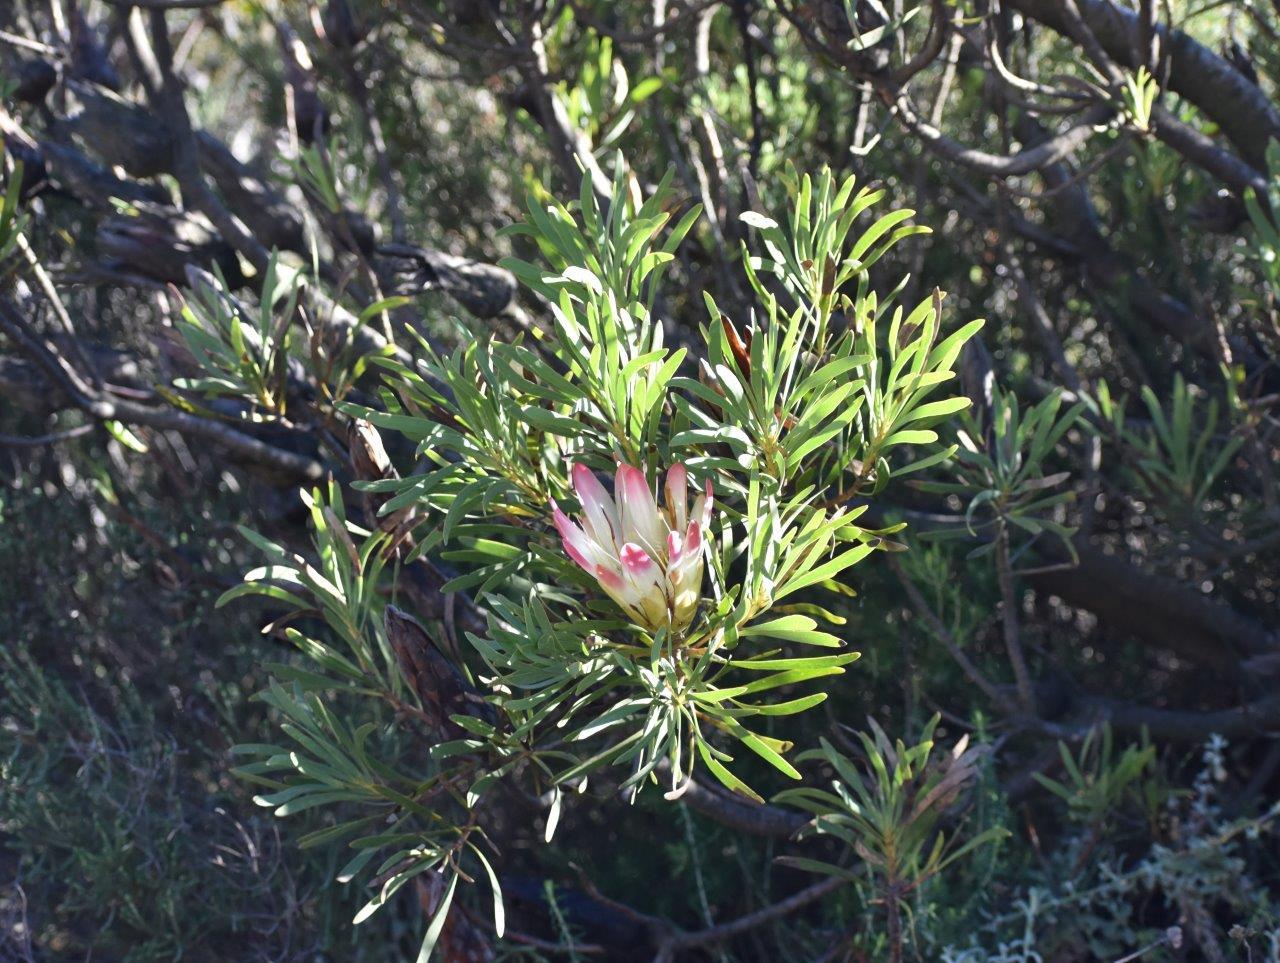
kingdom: Plantae
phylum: Tracheophyta
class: Magnoliopsida
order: Proteales
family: Proteaceae
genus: Protea
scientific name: Protea repens
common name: Sugarbush
